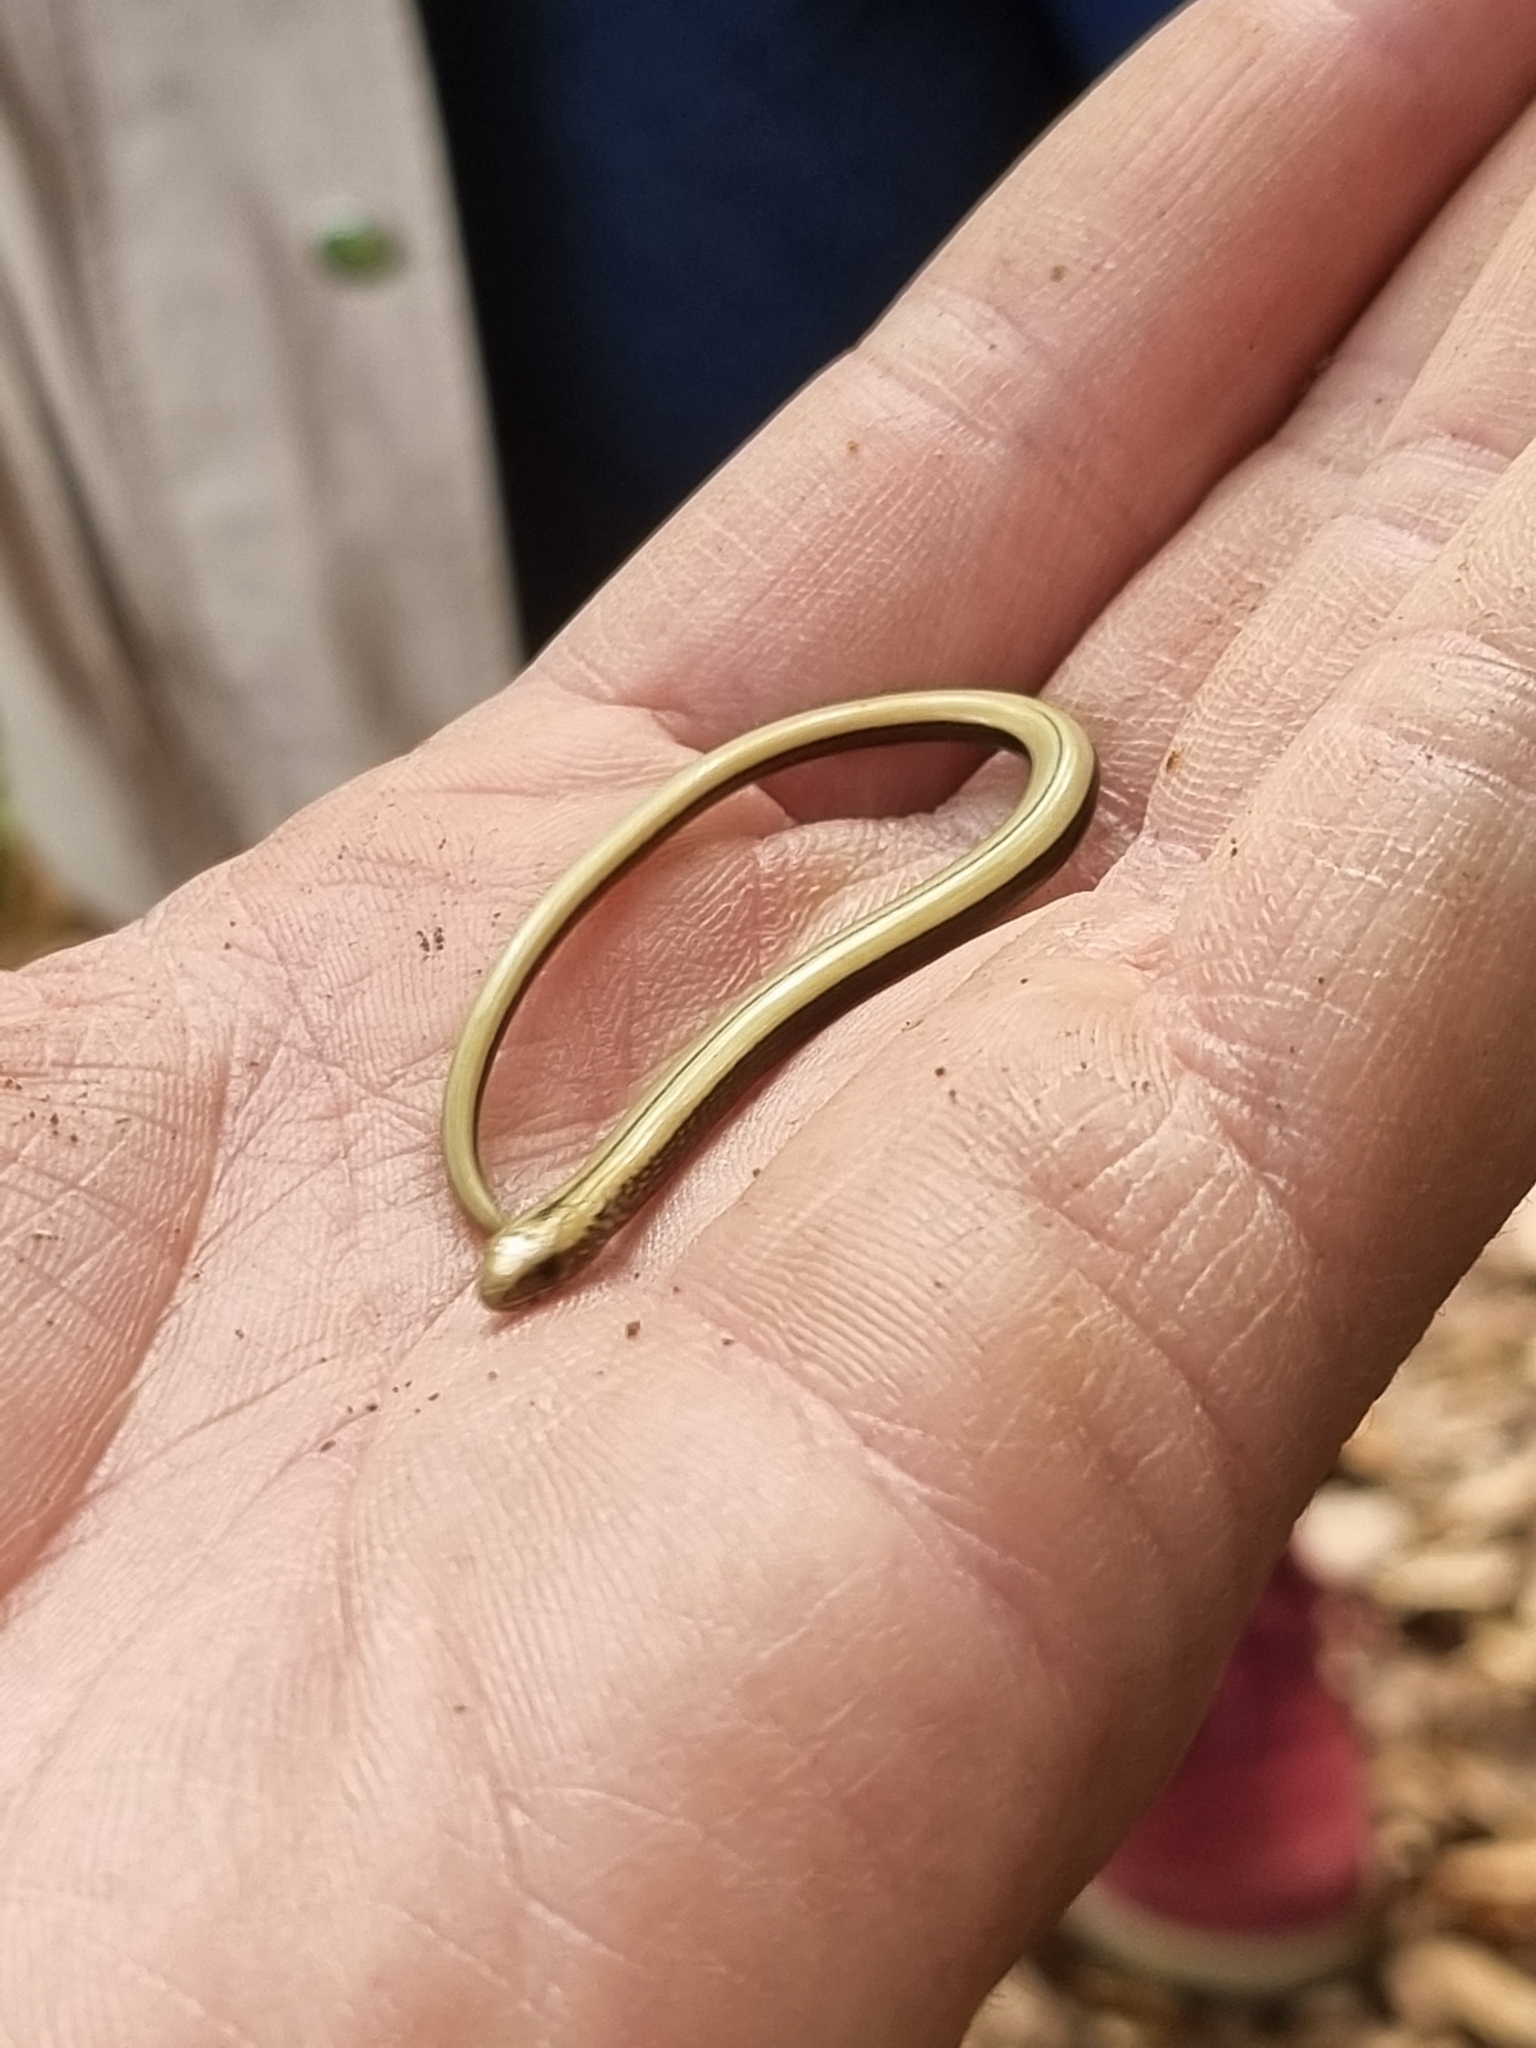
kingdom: Animalia
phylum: Chordata
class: Squamata
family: Anguidae
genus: Anguis
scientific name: Anguis fragilis
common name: Slow worm
